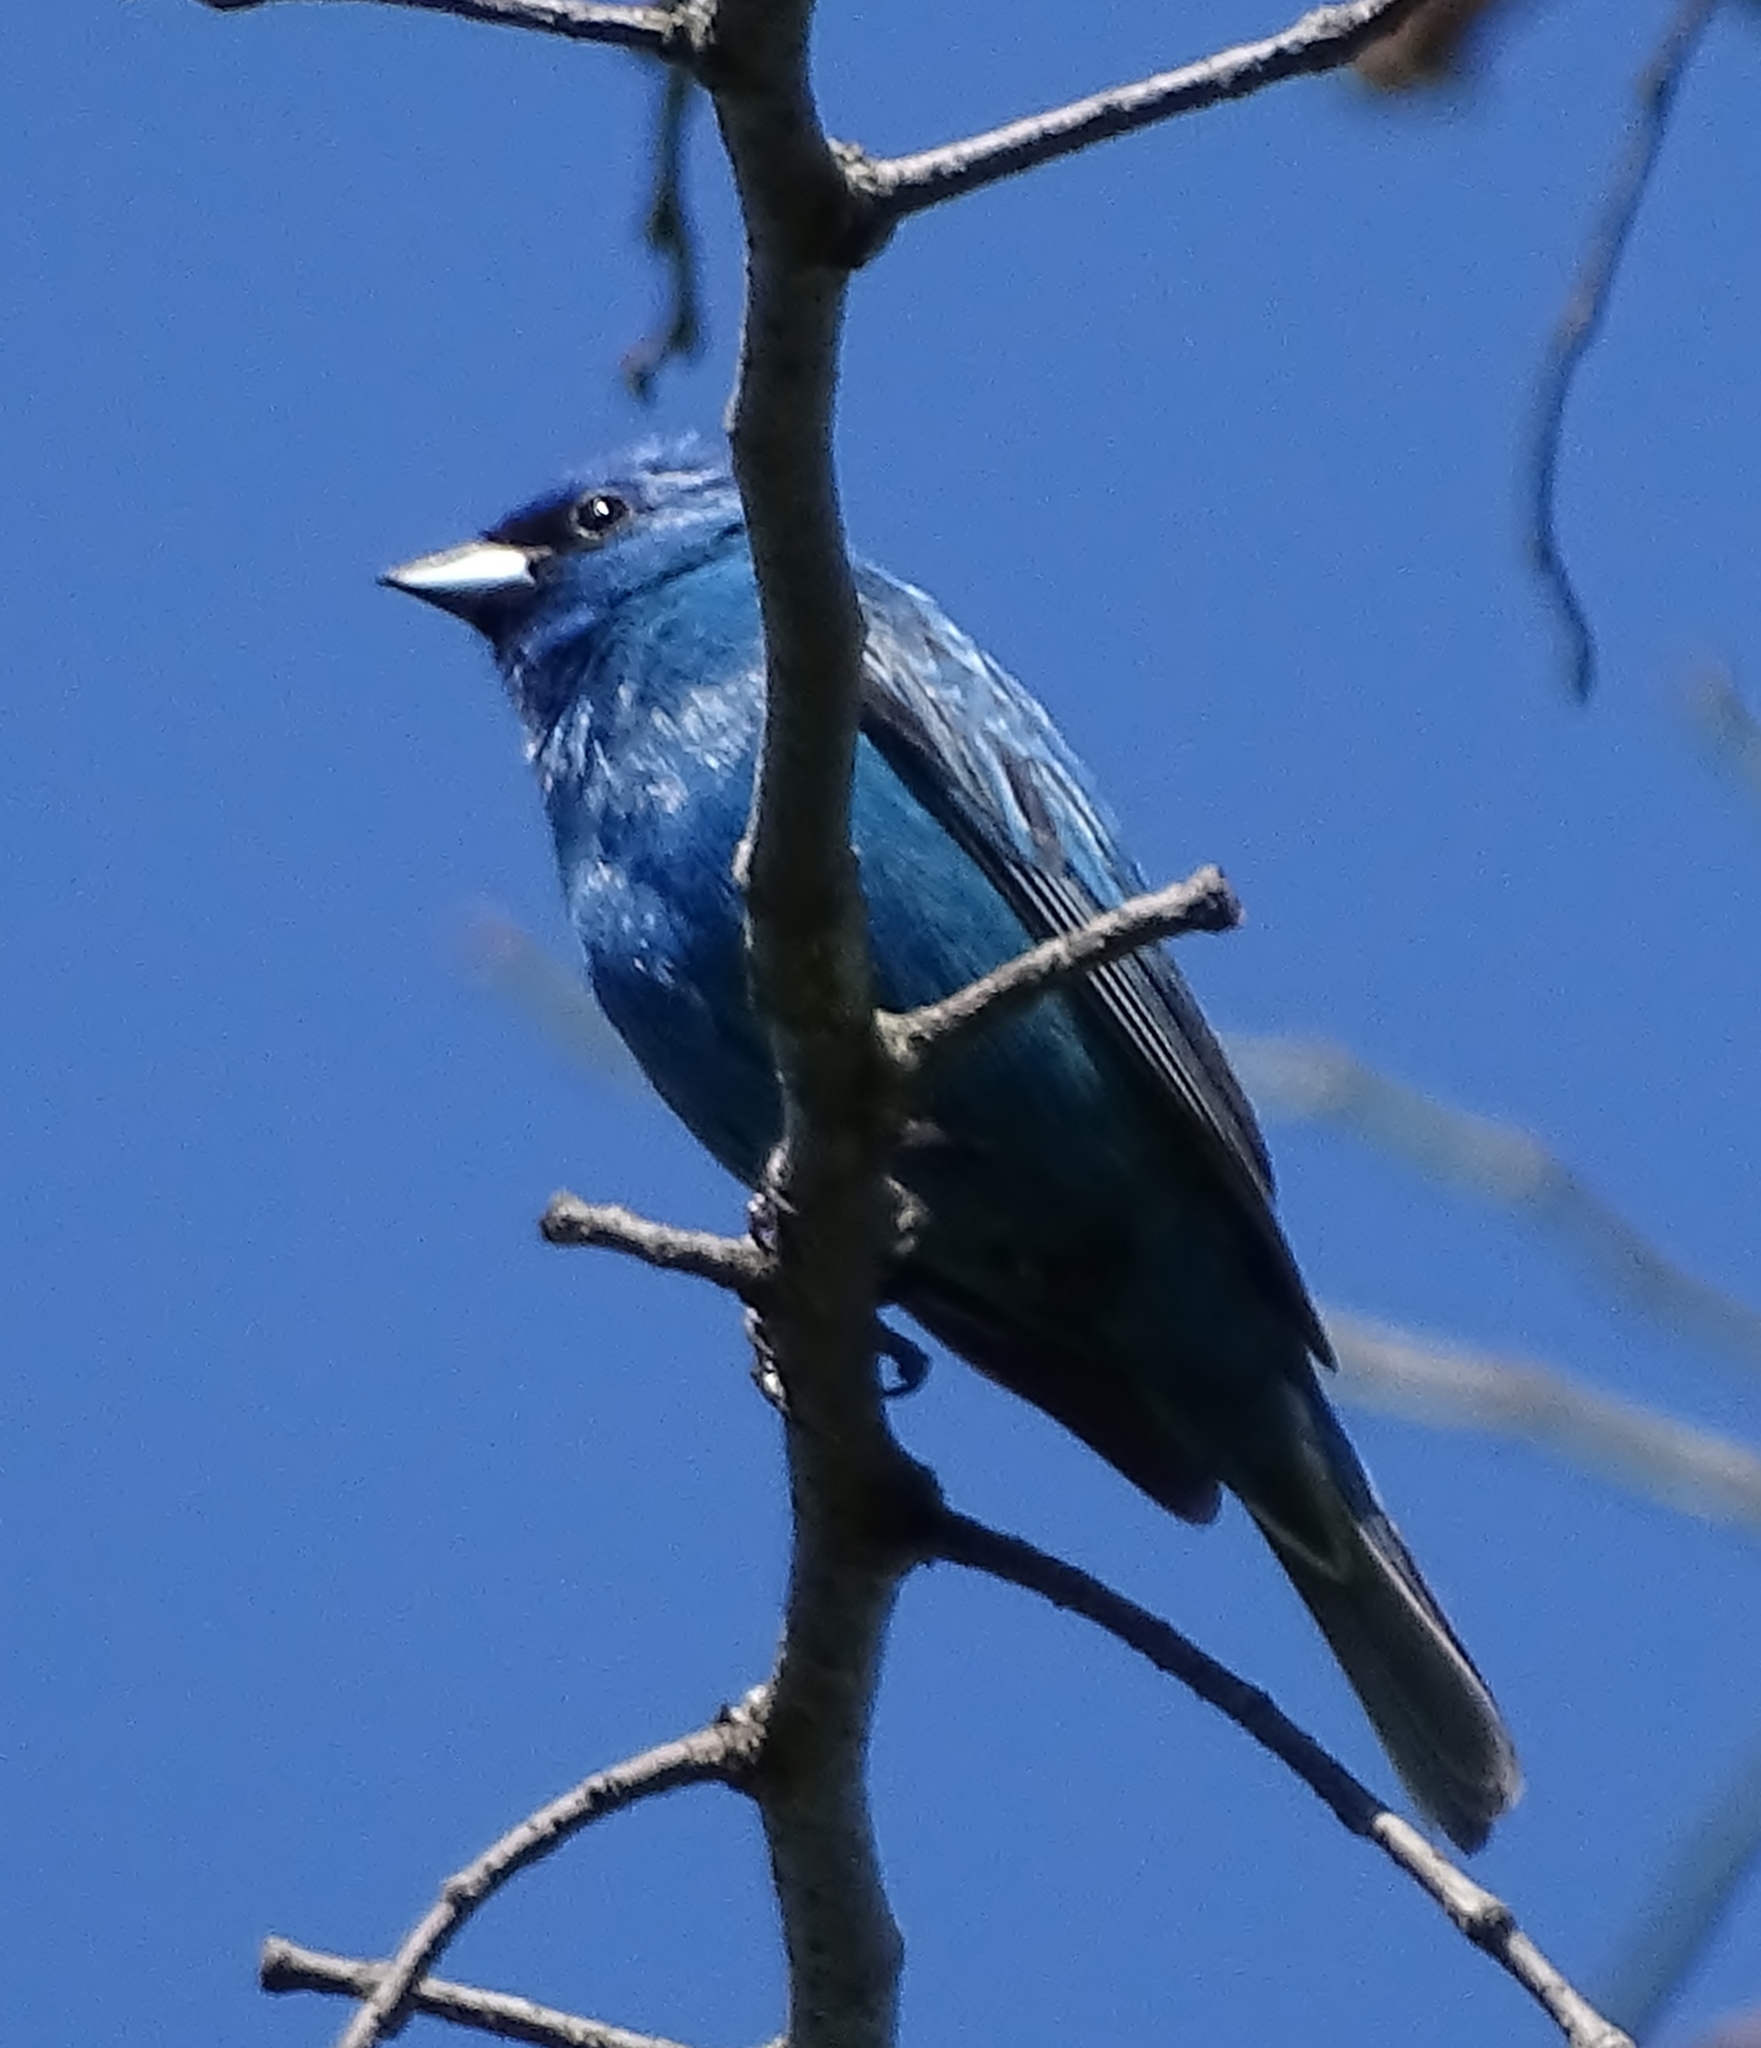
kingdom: Animalia
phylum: Chordata
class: Aves
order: Passeriformes
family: Cardinalidae
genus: Passerina
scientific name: Passerina cyanea
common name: Indigo bunting
